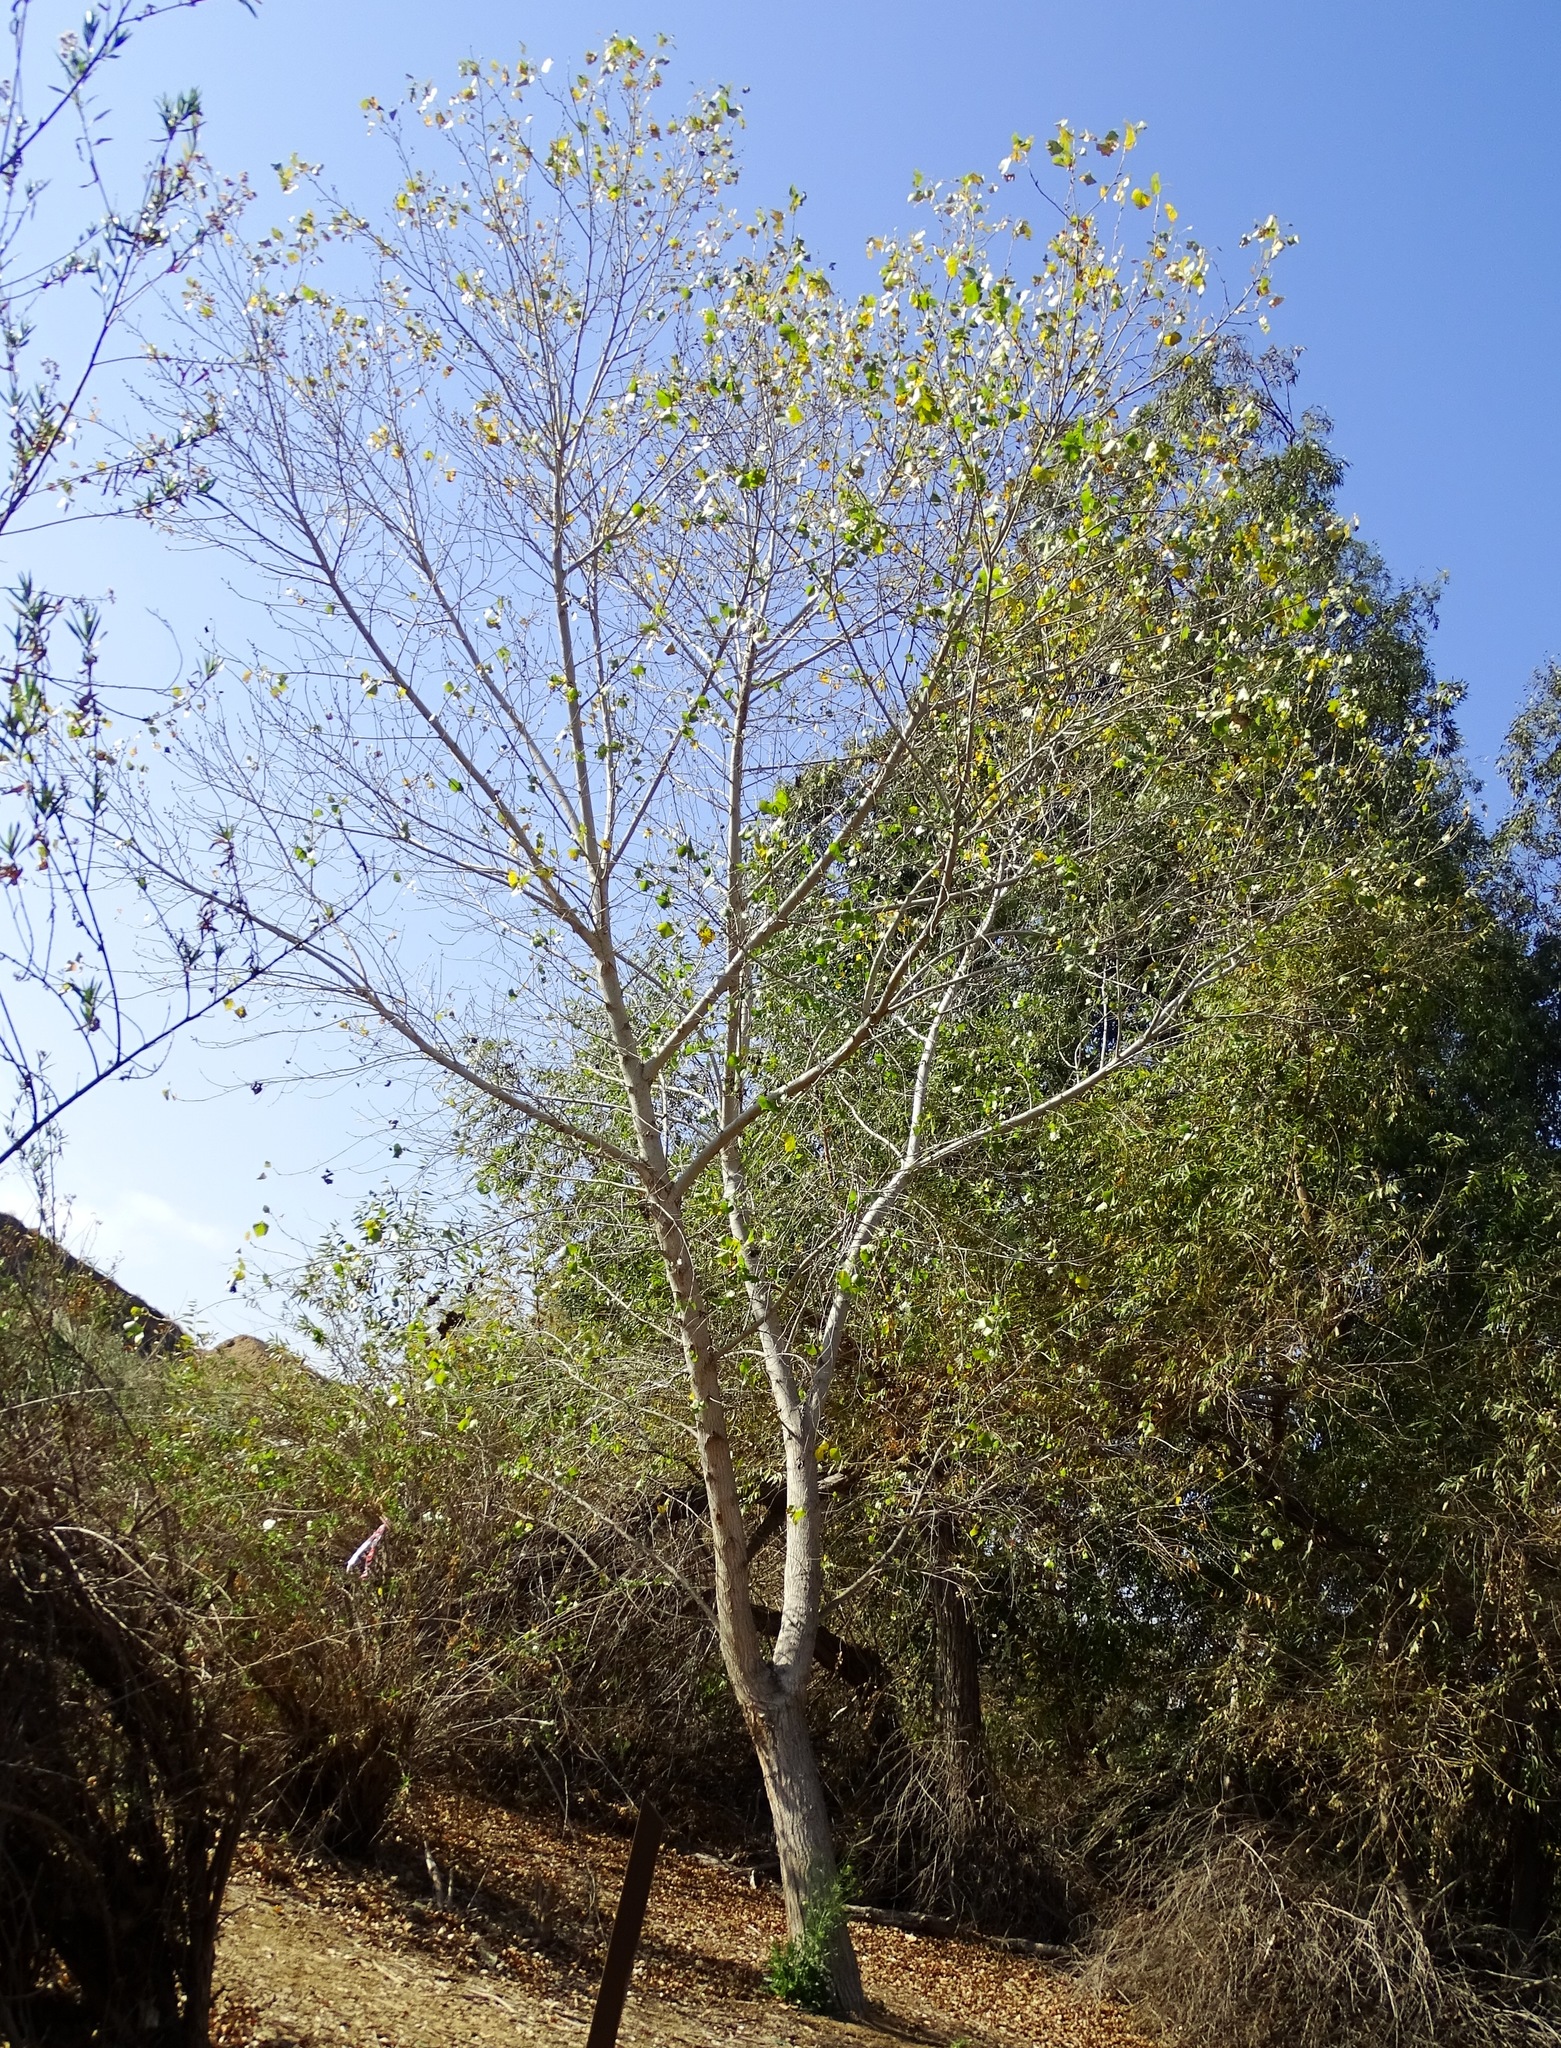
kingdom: Plantae
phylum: Tracheophyta
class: Magnoliopsida
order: Malpighiales
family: Salicaceae
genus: Populus
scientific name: Populus fremontii
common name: Fremont's cottonwood
